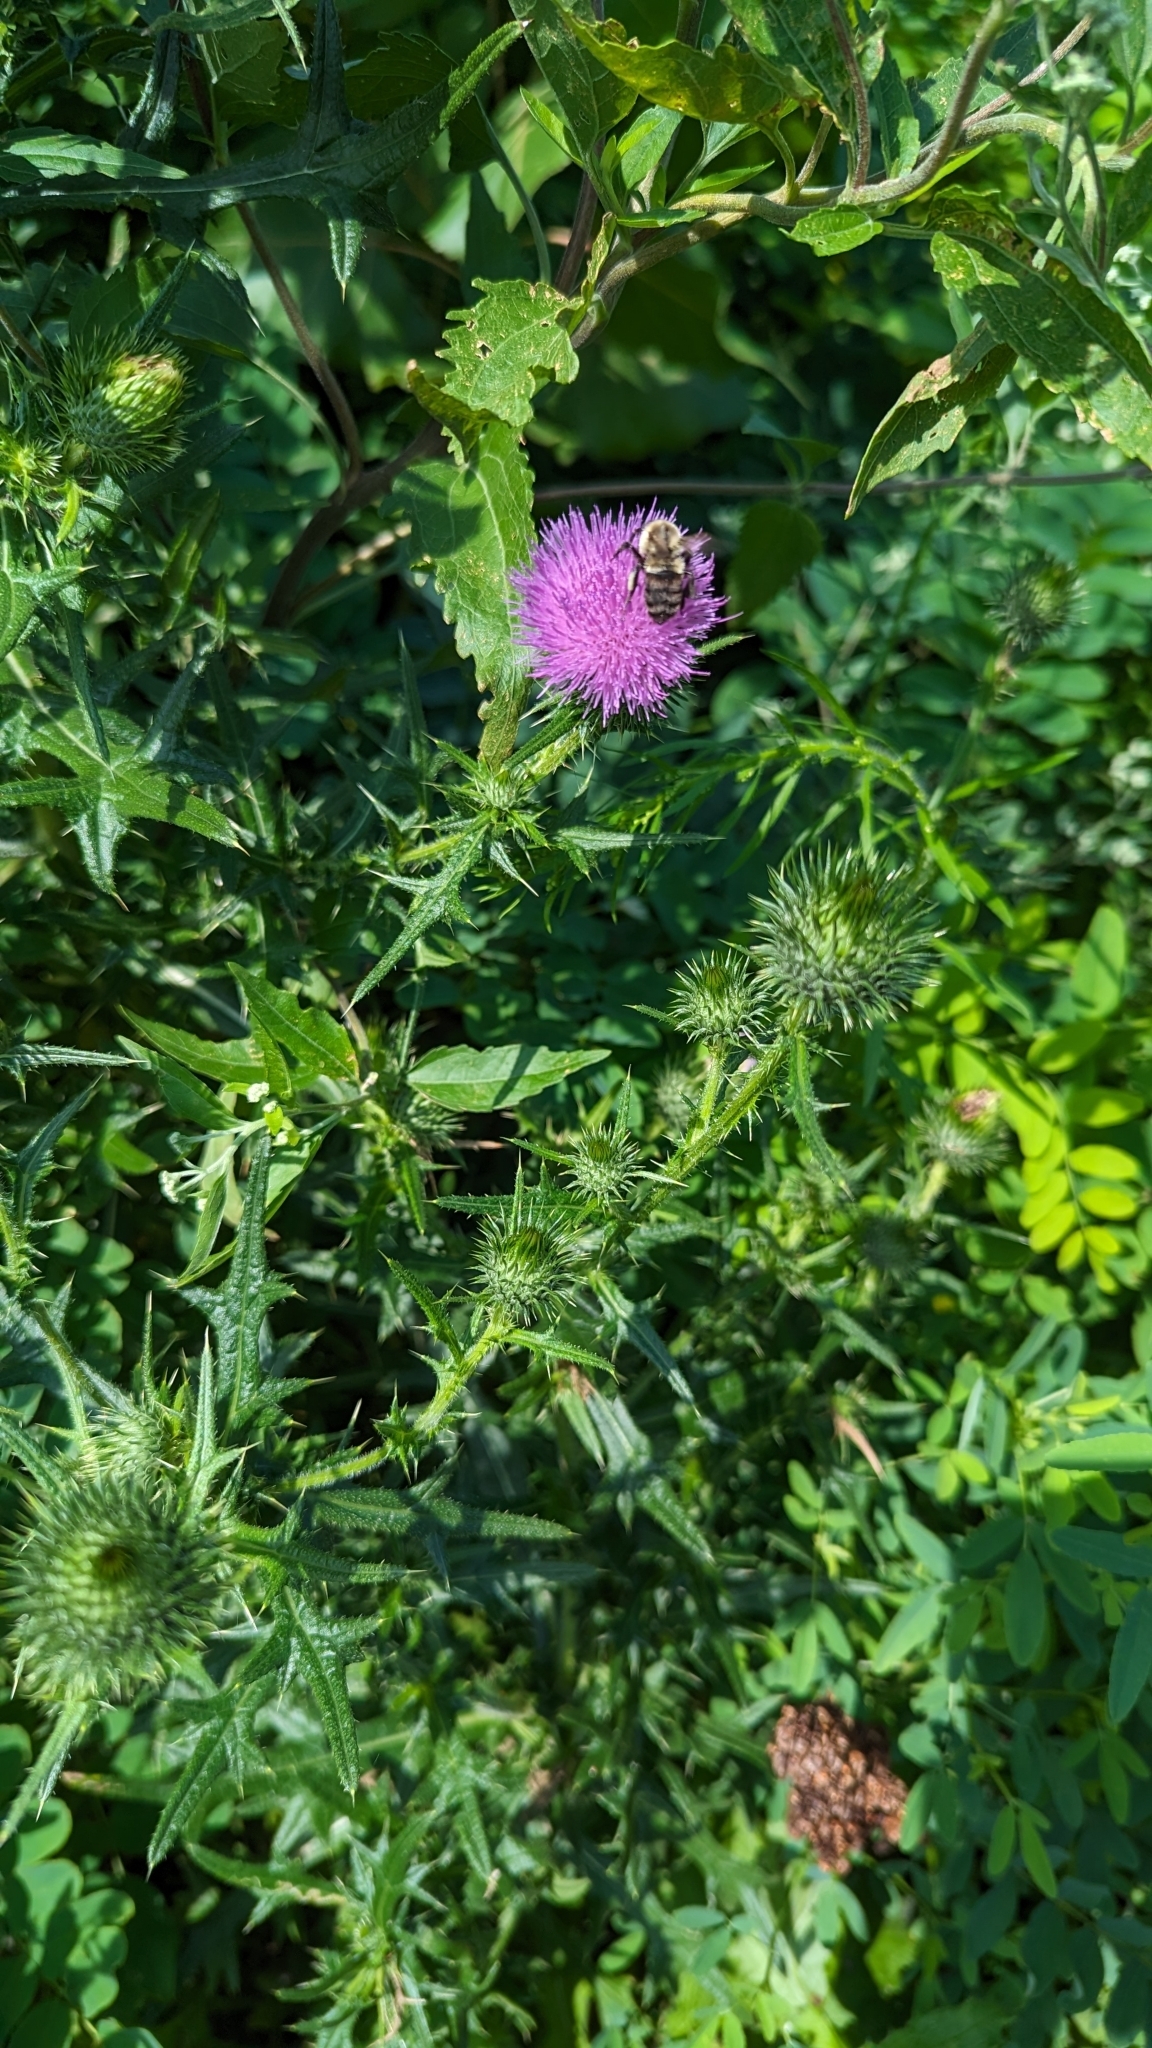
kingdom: Plantae
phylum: Tracheophyta
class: Magnoliopsida
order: Asterales
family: Asteraceae
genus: Cirsium
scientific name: Cirsium vulgare
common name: Bull thistle
